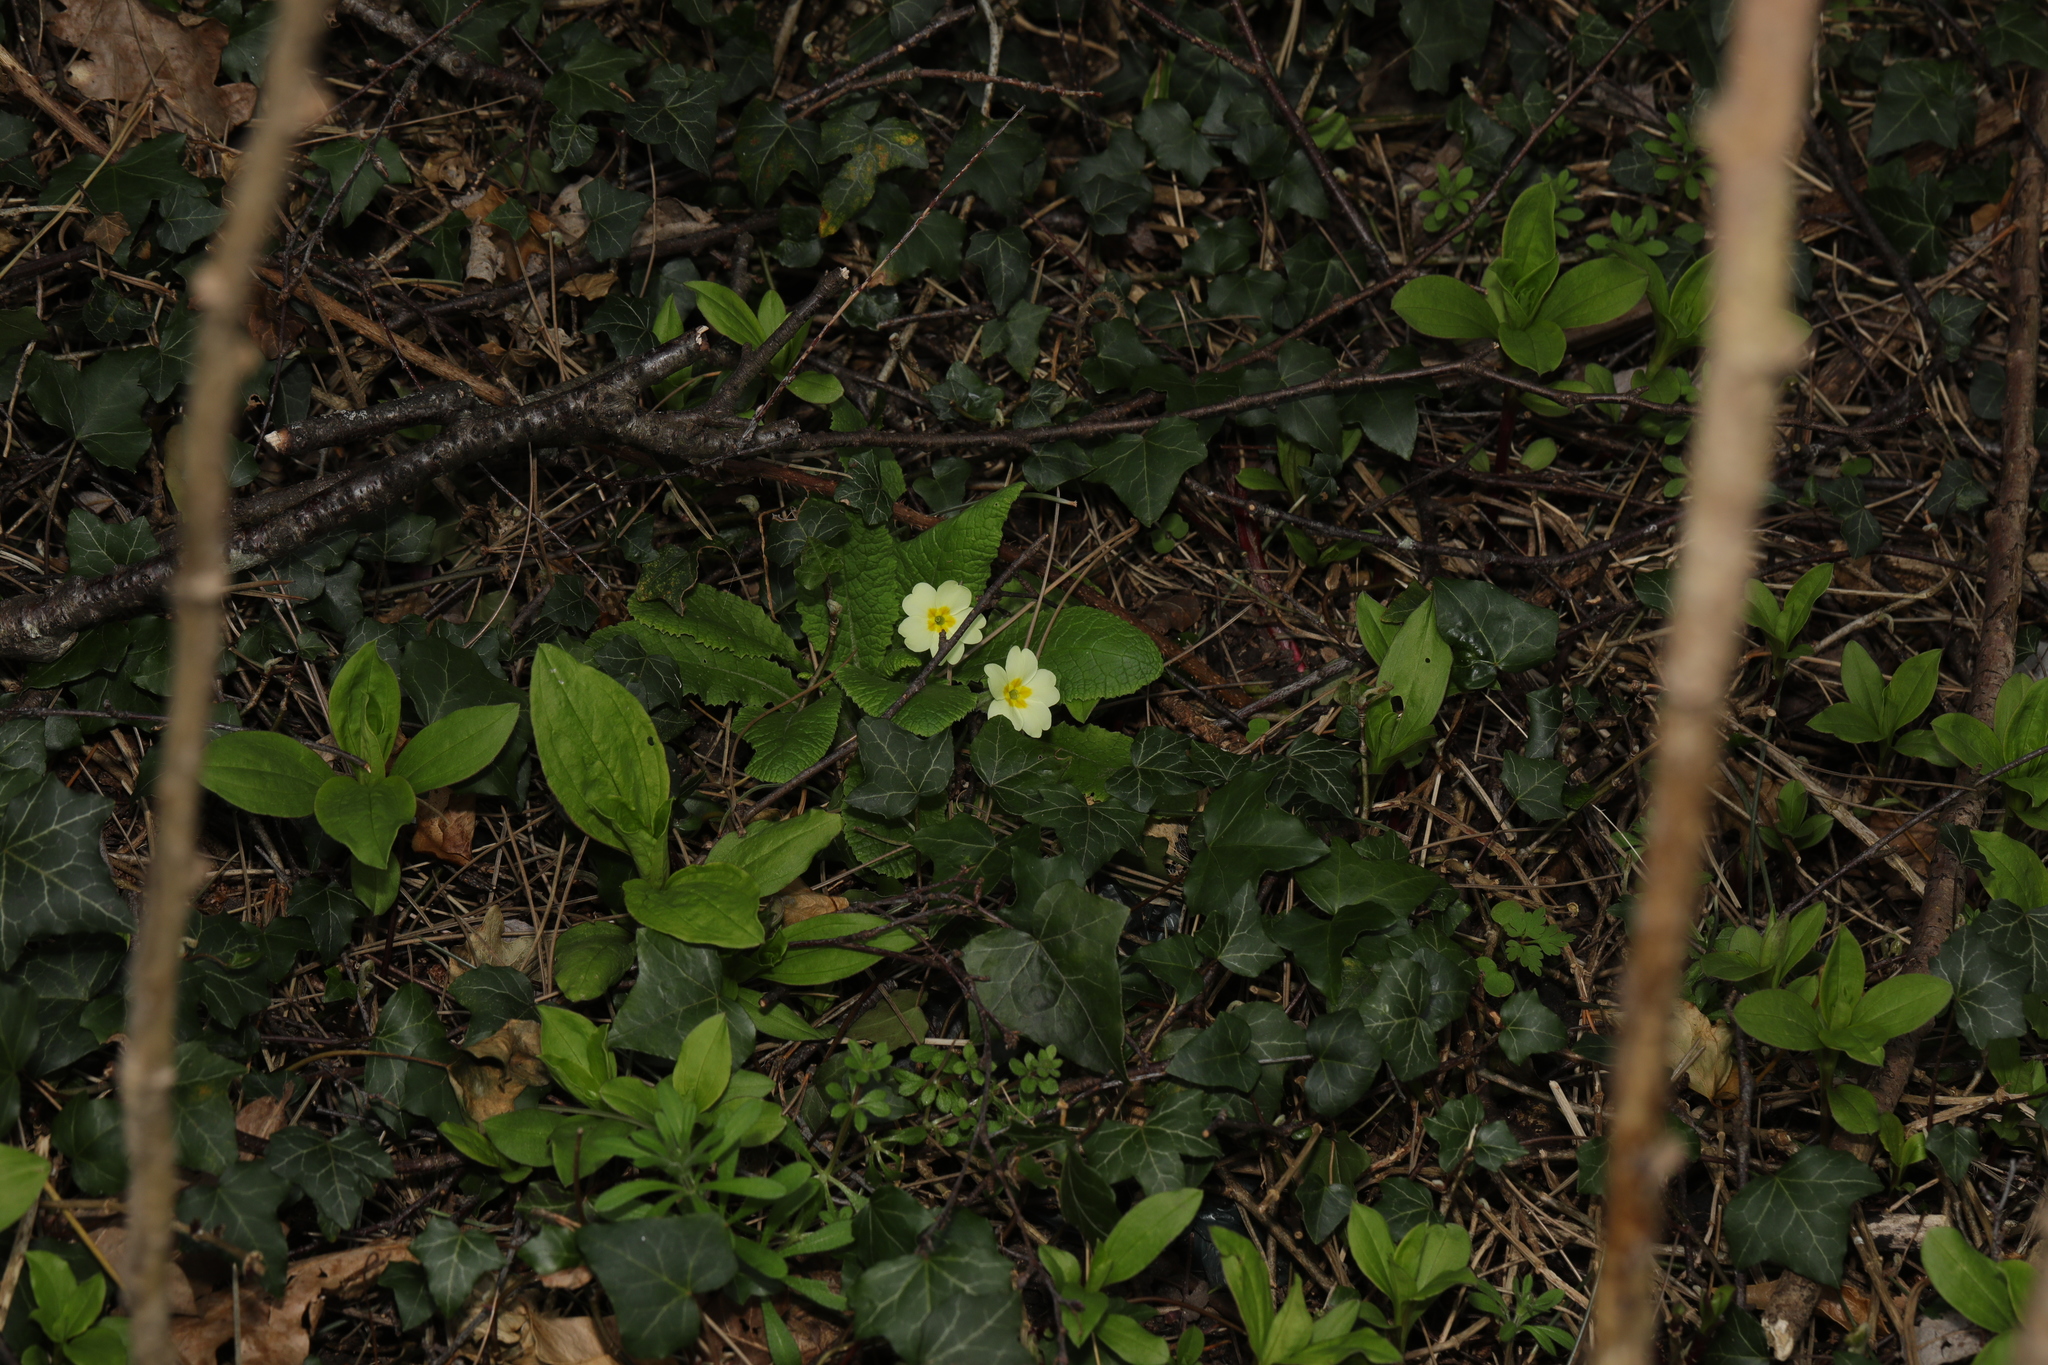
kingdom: Plantae
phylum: Tracheophyta
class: Magnoliopsida
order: Ericales
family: Primulaceae
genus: Primula
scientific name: Primula vulgaris
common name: Primrose
